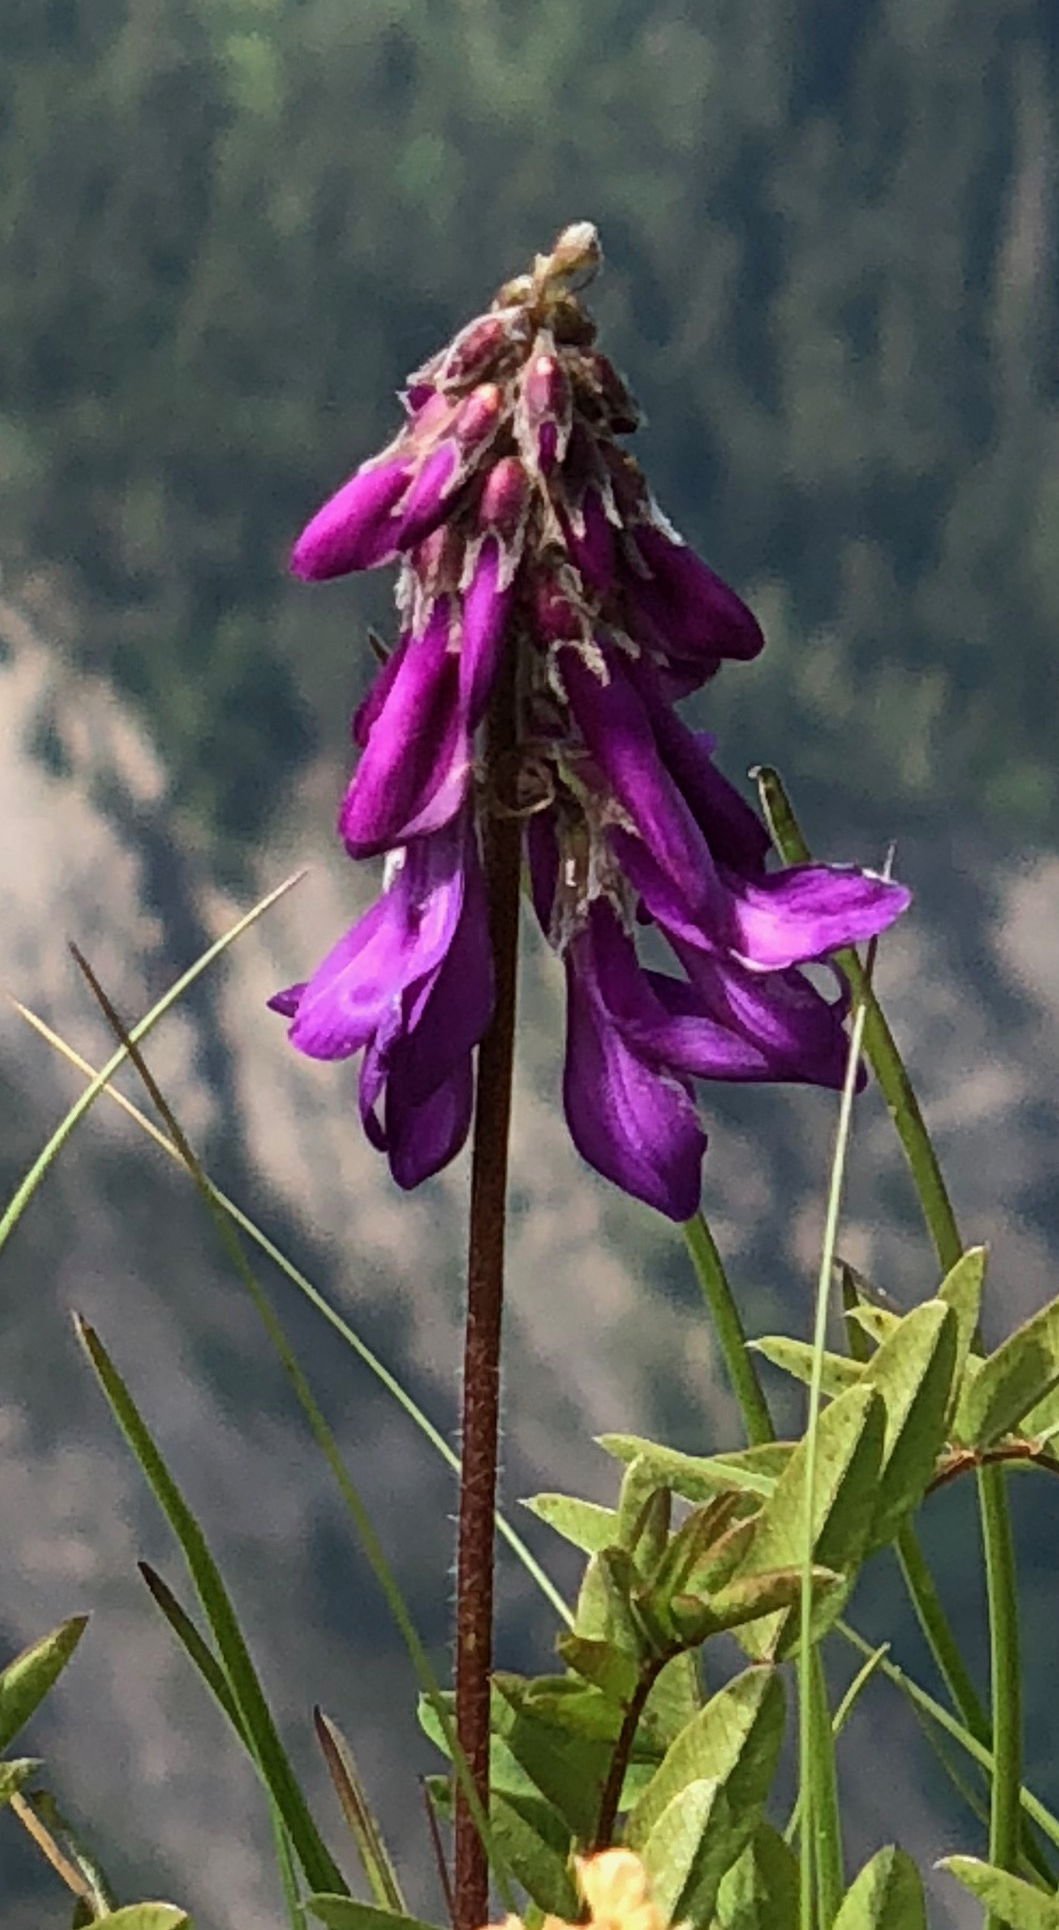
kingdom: Plantae
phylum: Tracheophyta
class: Magnoliopsida
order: Fabales
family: Fabaceae
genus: Hedysarum
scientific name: Hedysarum hedysaroides
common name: Alpine french-honeysuckle
